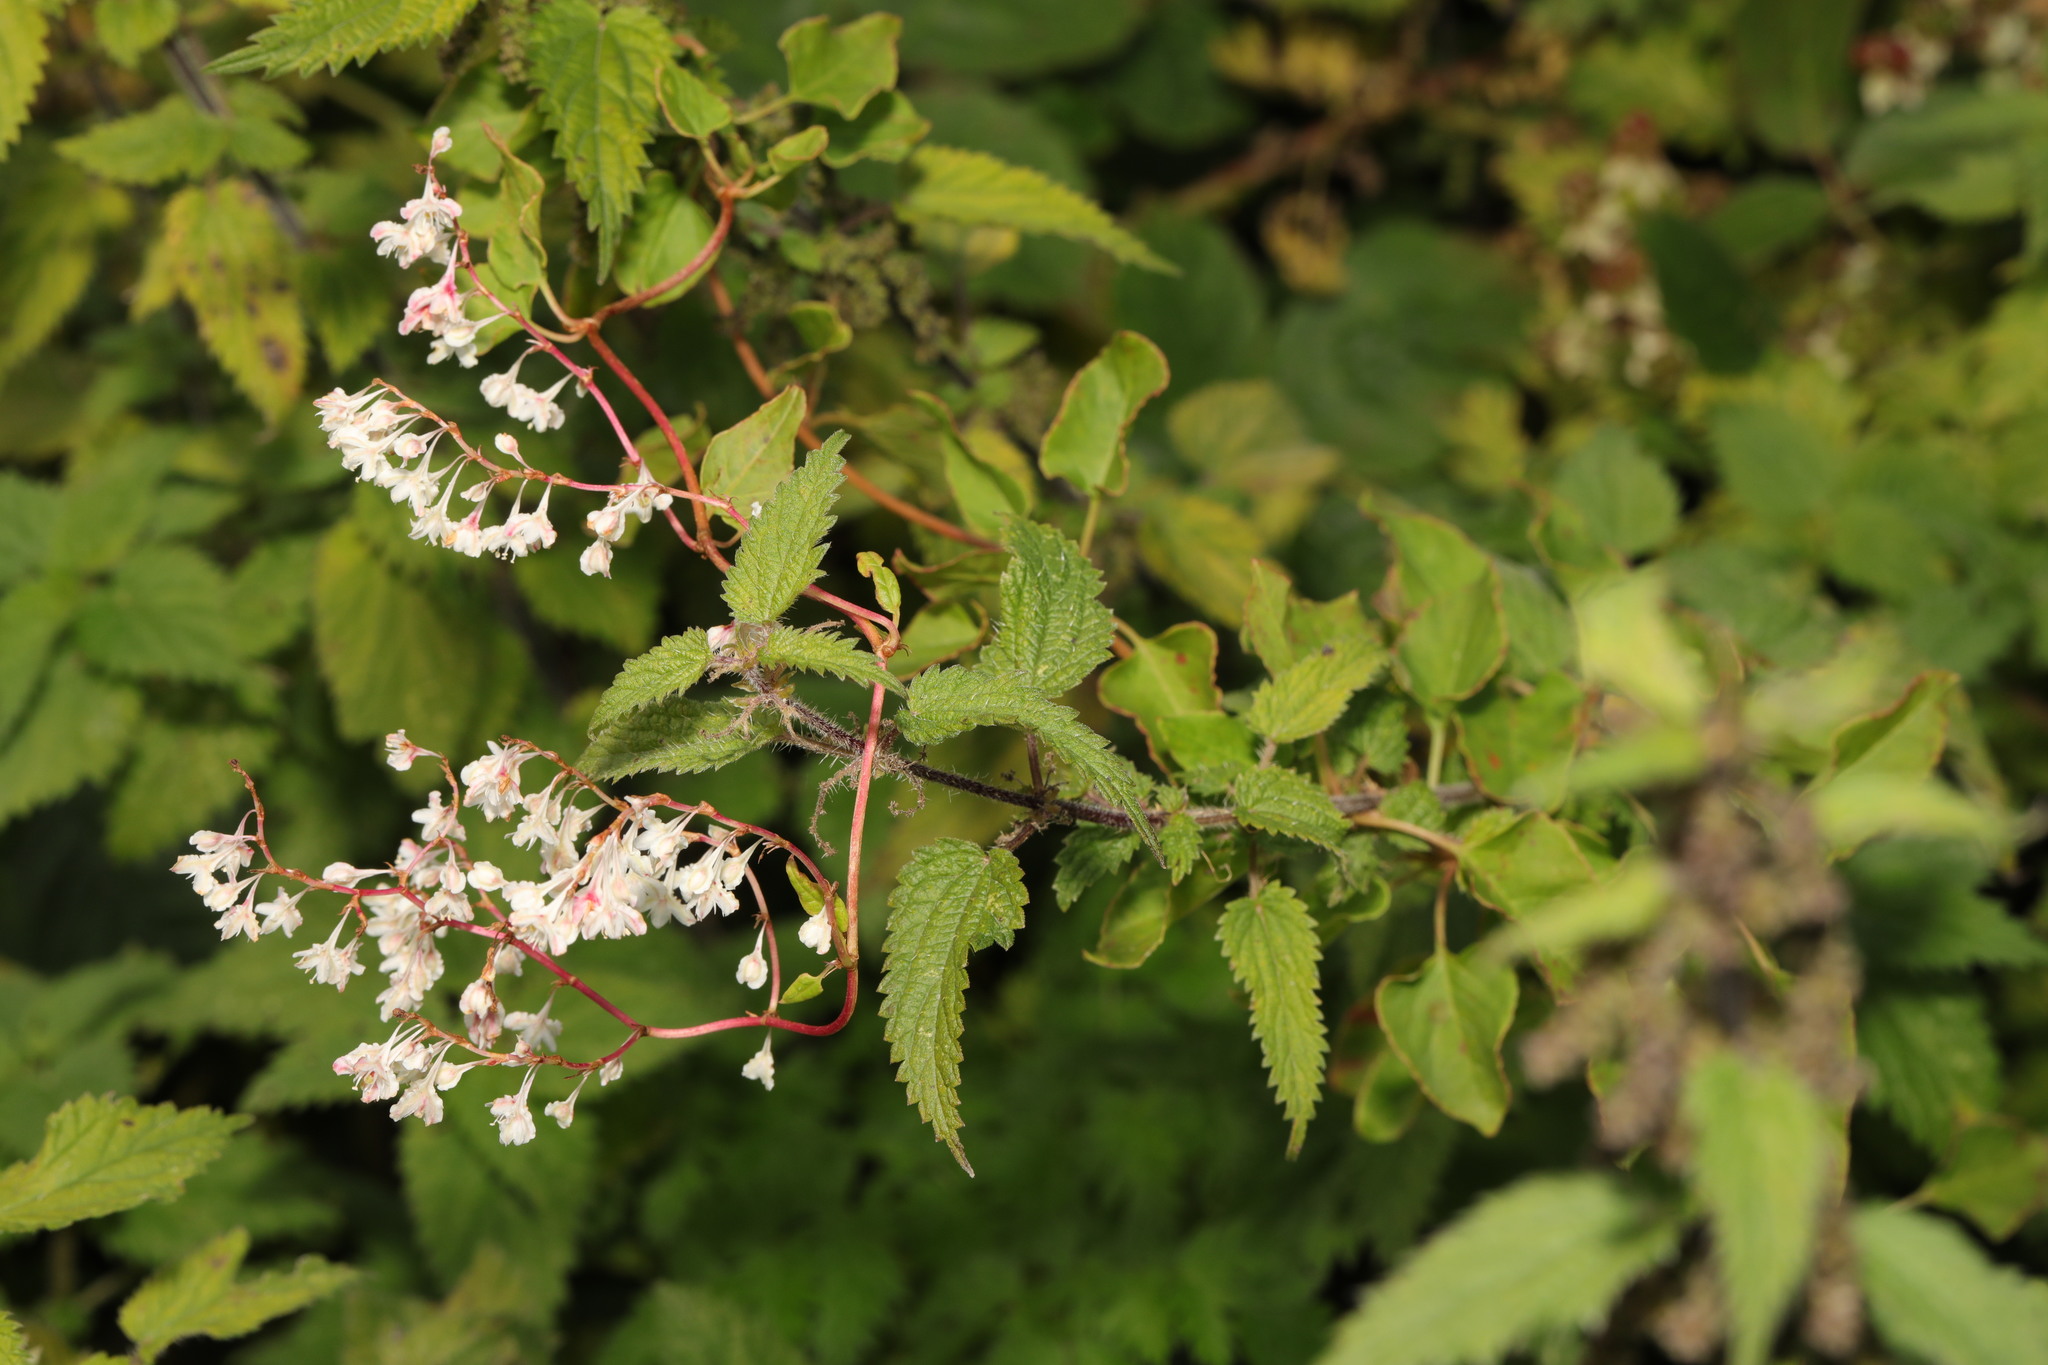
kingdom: Plantae
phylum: Tracheophyta
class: Magnoliopsida
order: Caryophyllales
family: Polygonaceae
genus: Fallopia
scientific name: Fallopia baldschuanica
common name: Russian-vine
